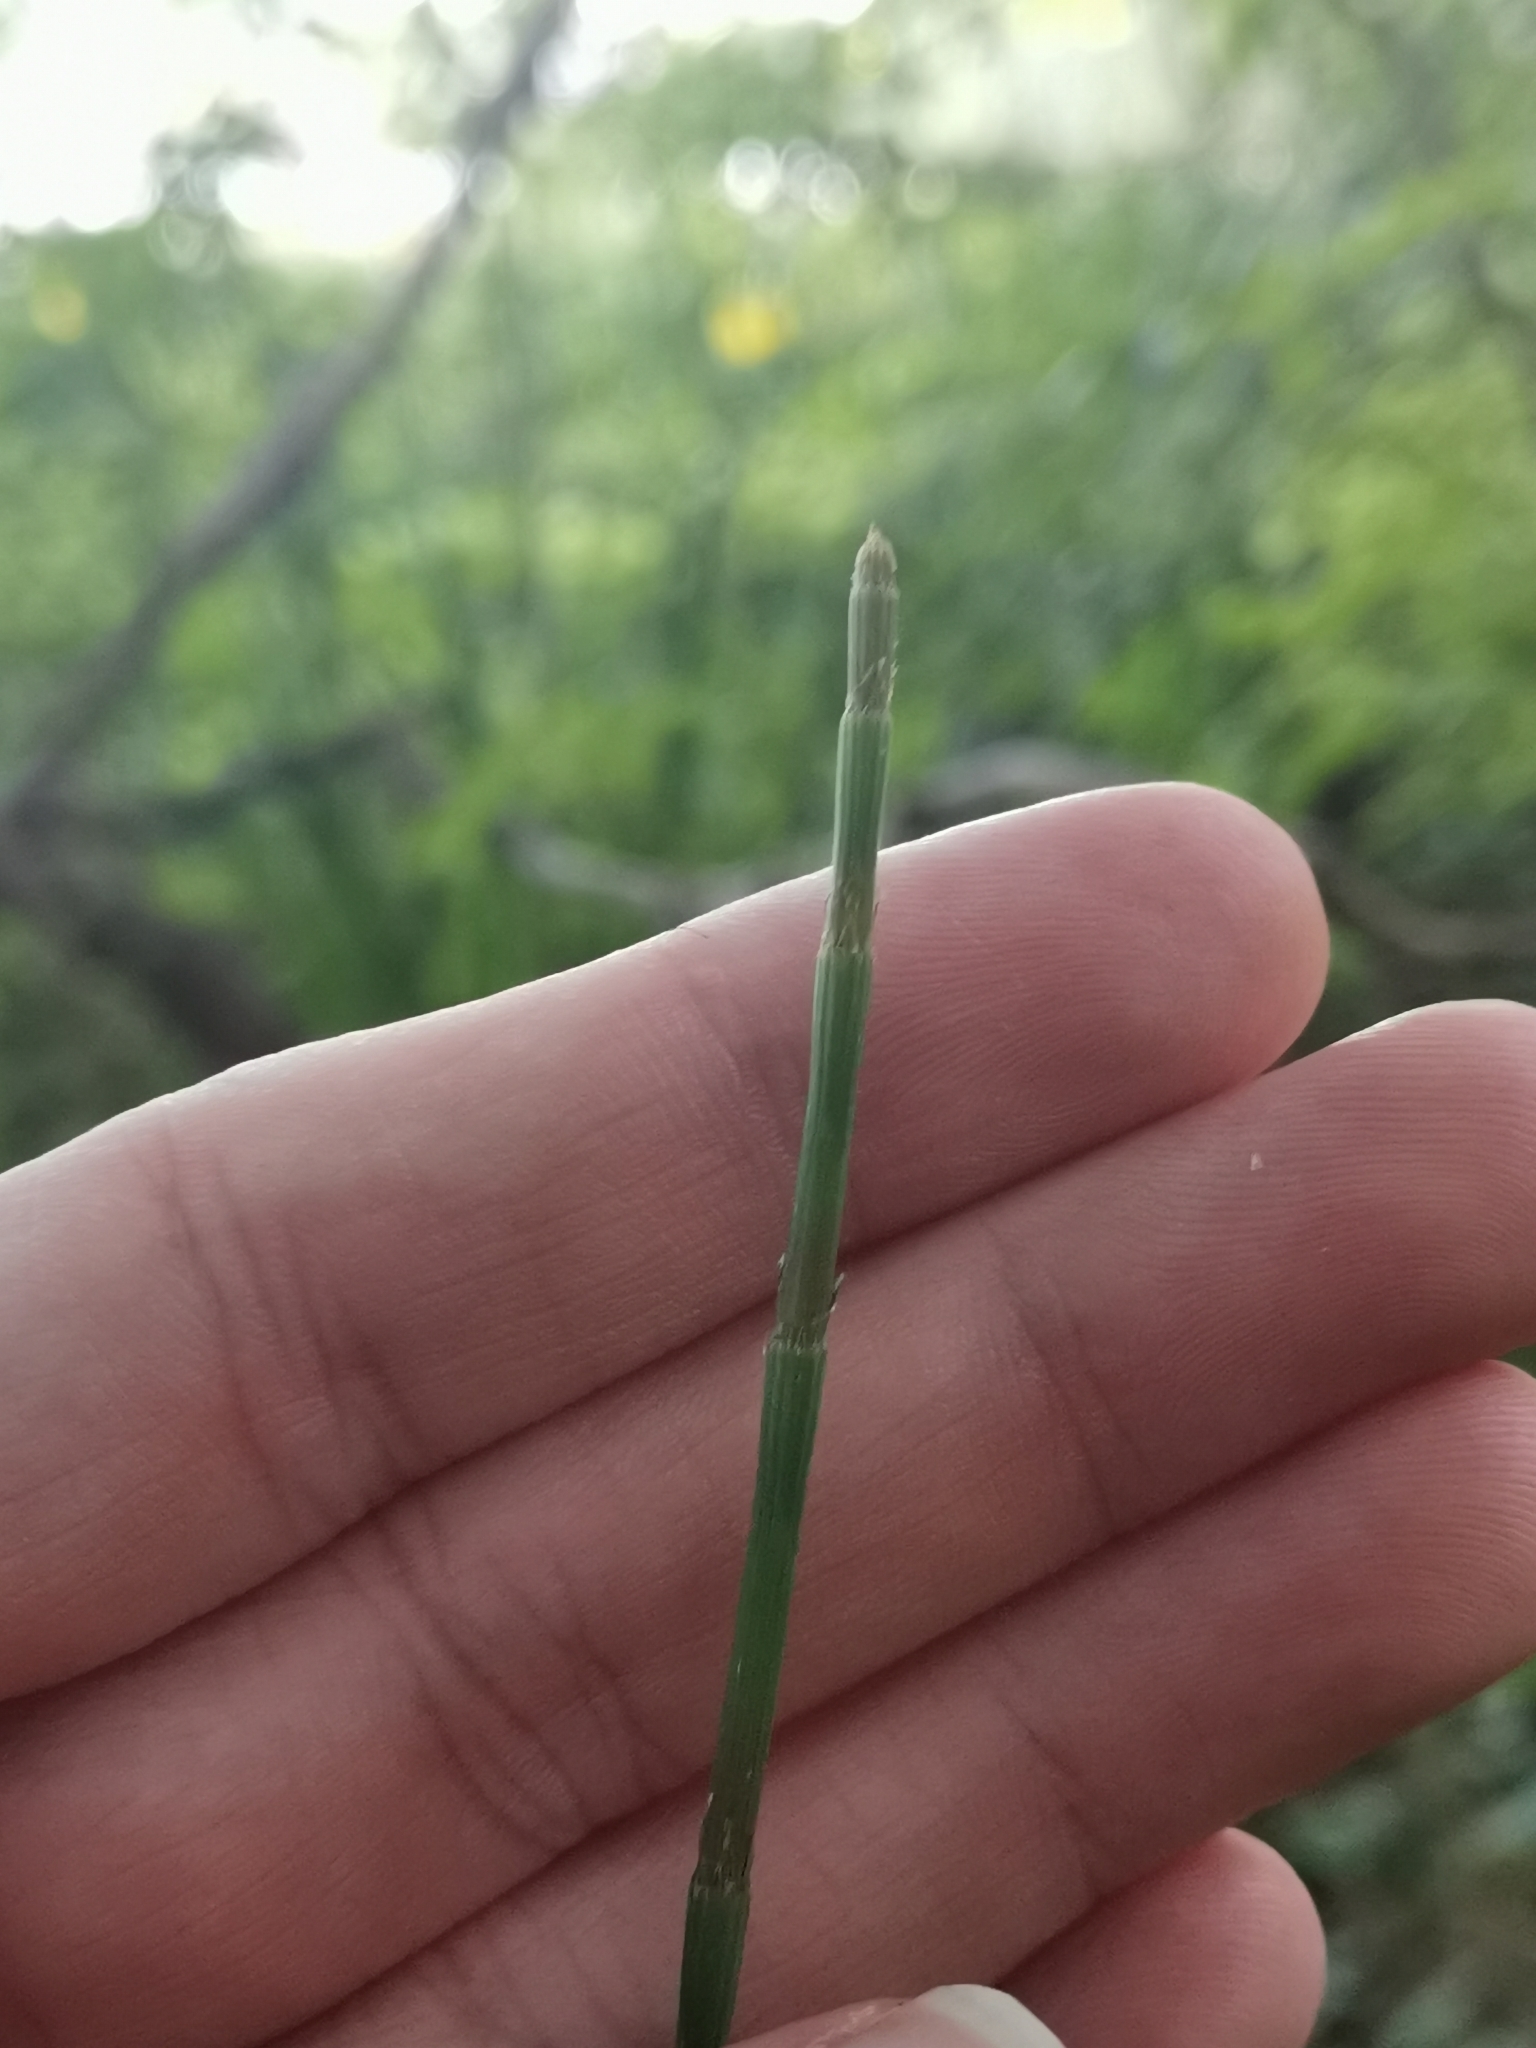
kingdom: Plantae
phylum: Tracheophyta
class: Polypodiopsida
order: Equisetales
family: Equisetaceae
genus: Equisetum
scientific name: Equisetum ramosissimum
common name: Branched horsetail
